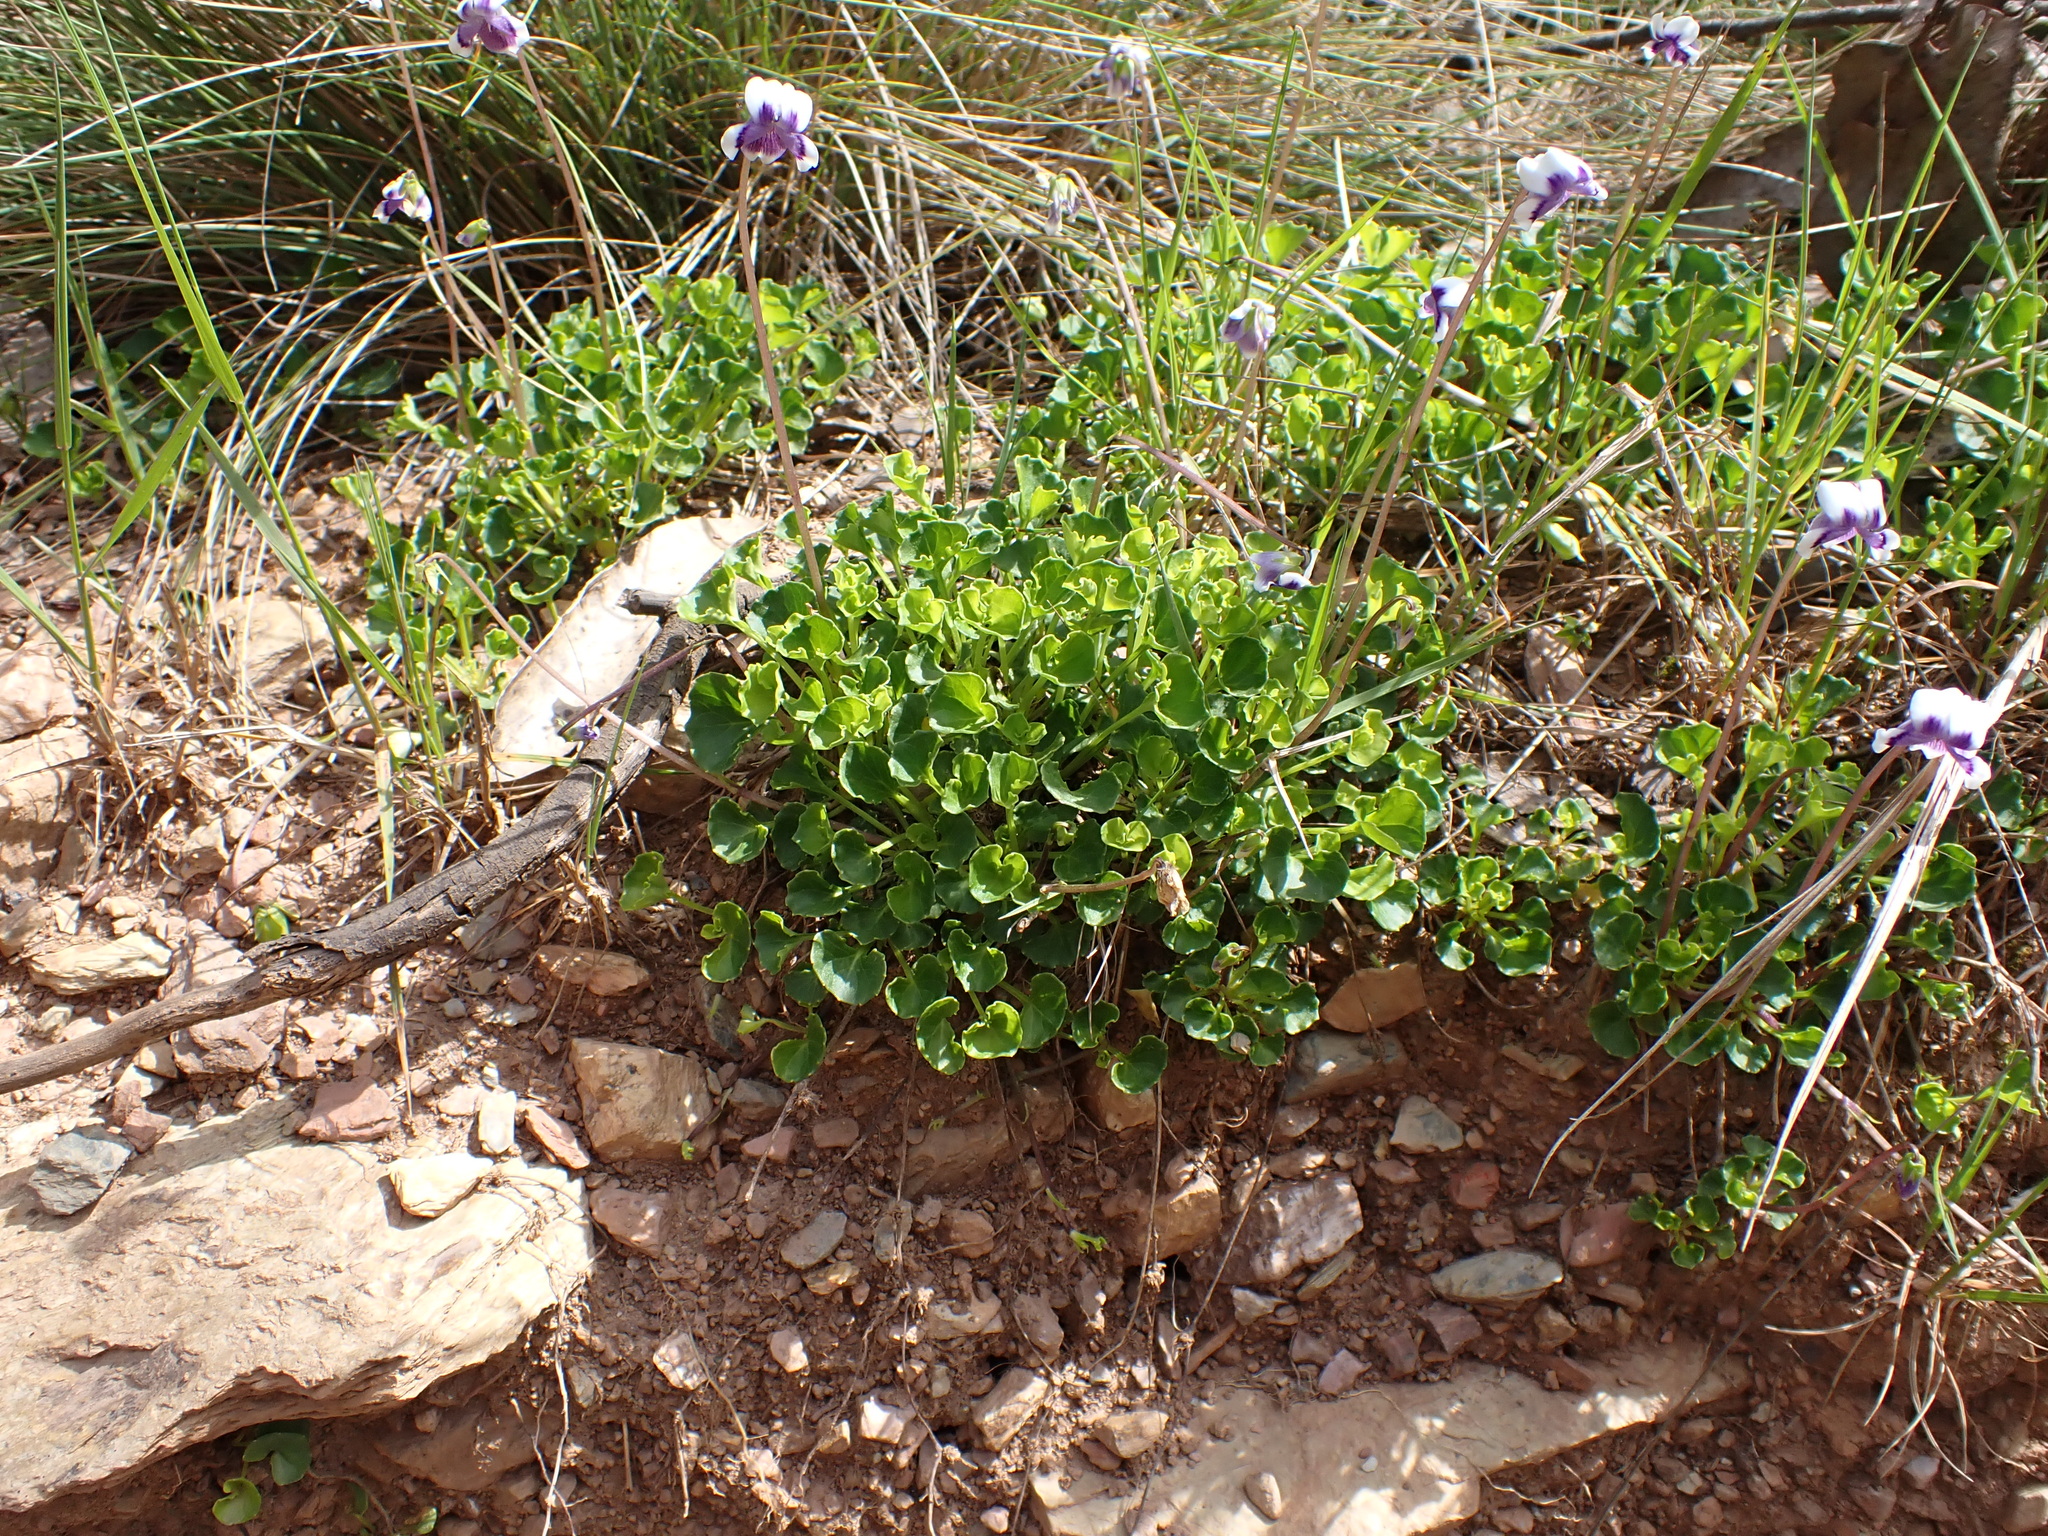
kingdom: Plantae
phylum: Tracheophyta
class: Magnoliopsida
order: Malpighiales
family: Violaceae
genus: Viola
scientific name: Viola eminens
